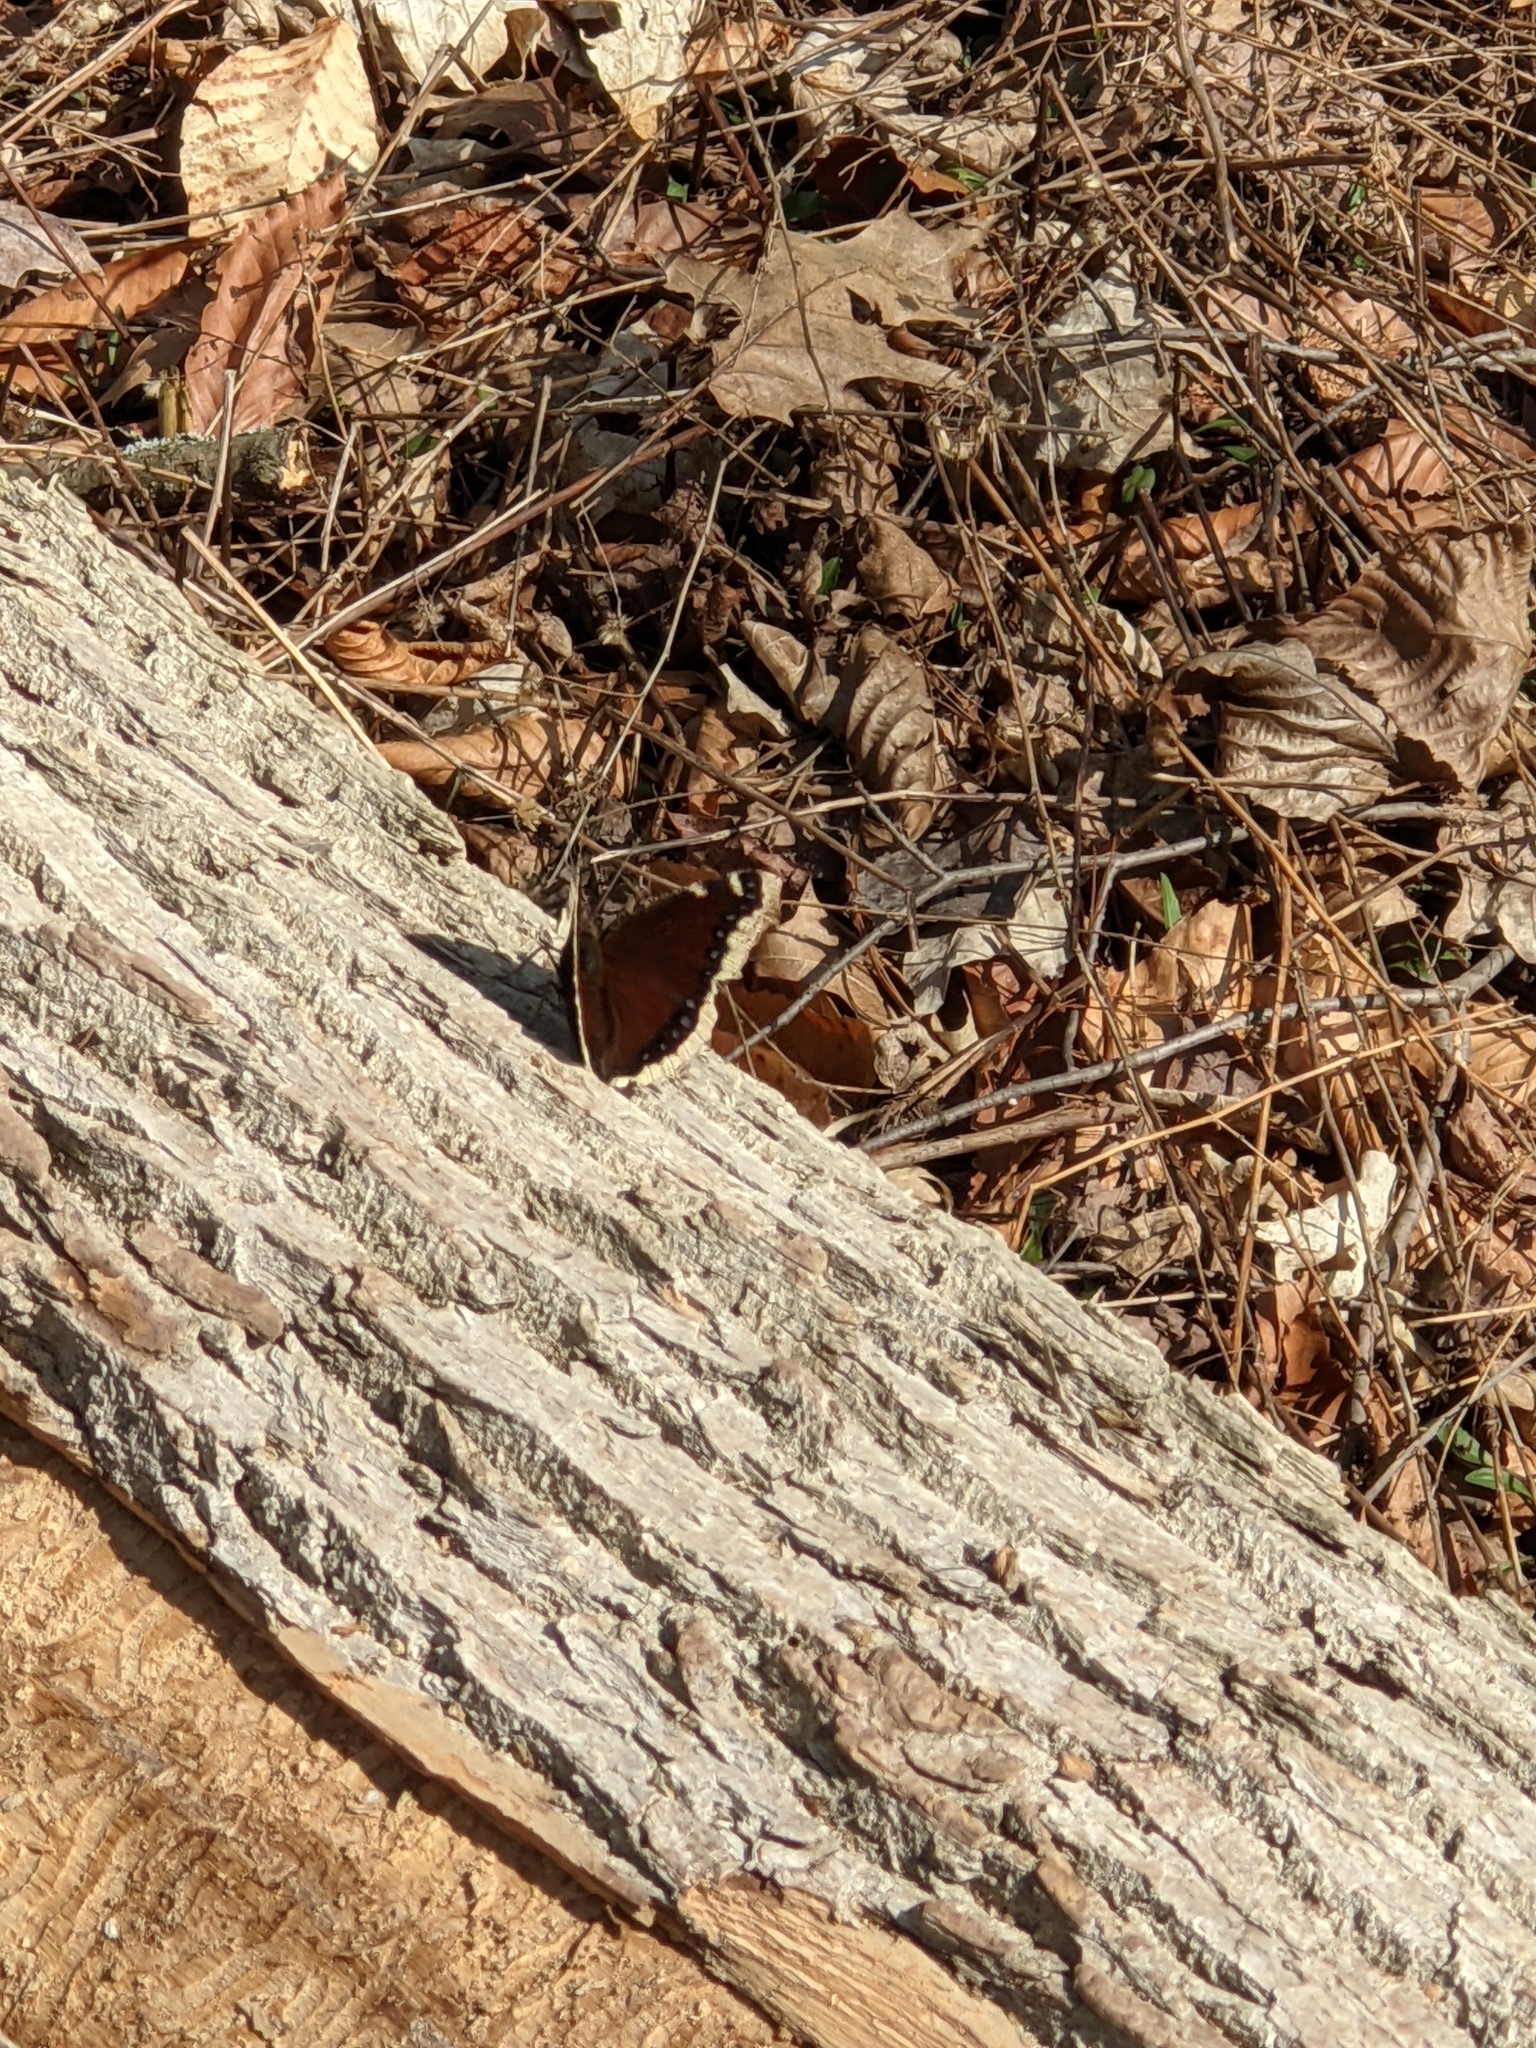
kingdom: Animalia
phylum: Arthropoda
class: Insecta
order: Lepidoptera
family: Nymphalidae
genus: Nymphalis
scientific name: Nymphalis antiopa
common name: Camberwell beauty
